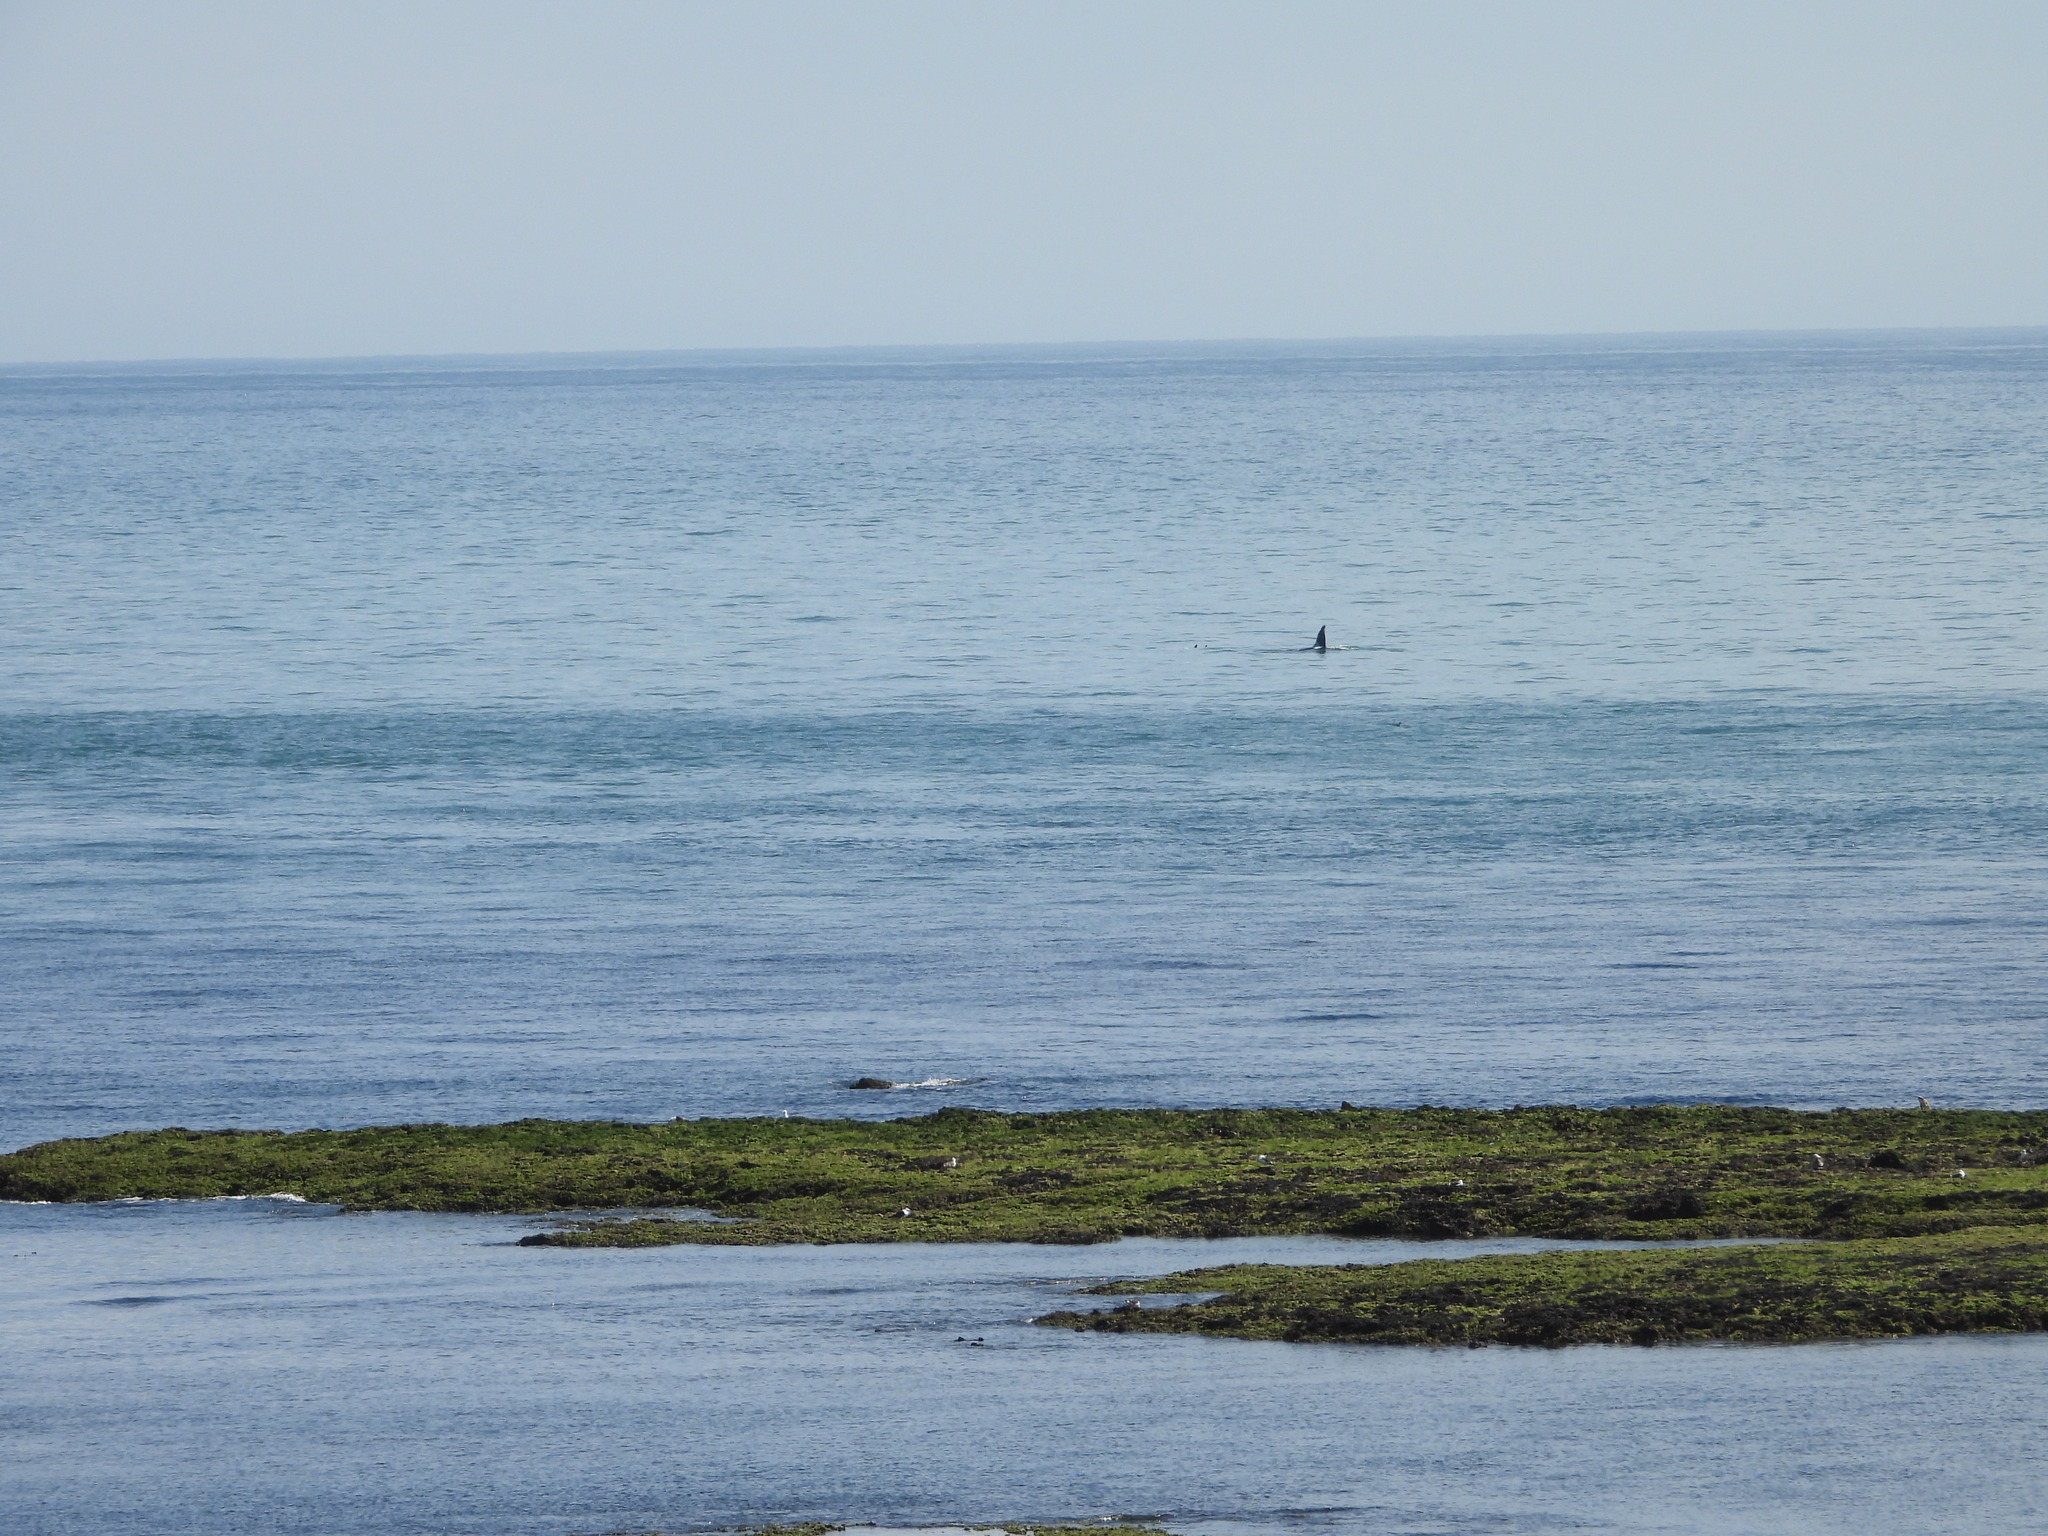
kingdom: Animalia
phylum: Chordata
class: Mammalia
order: Cetacea
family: Delphinidae
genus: Orcinus
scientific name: Orcinus orca
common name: Killer whale
